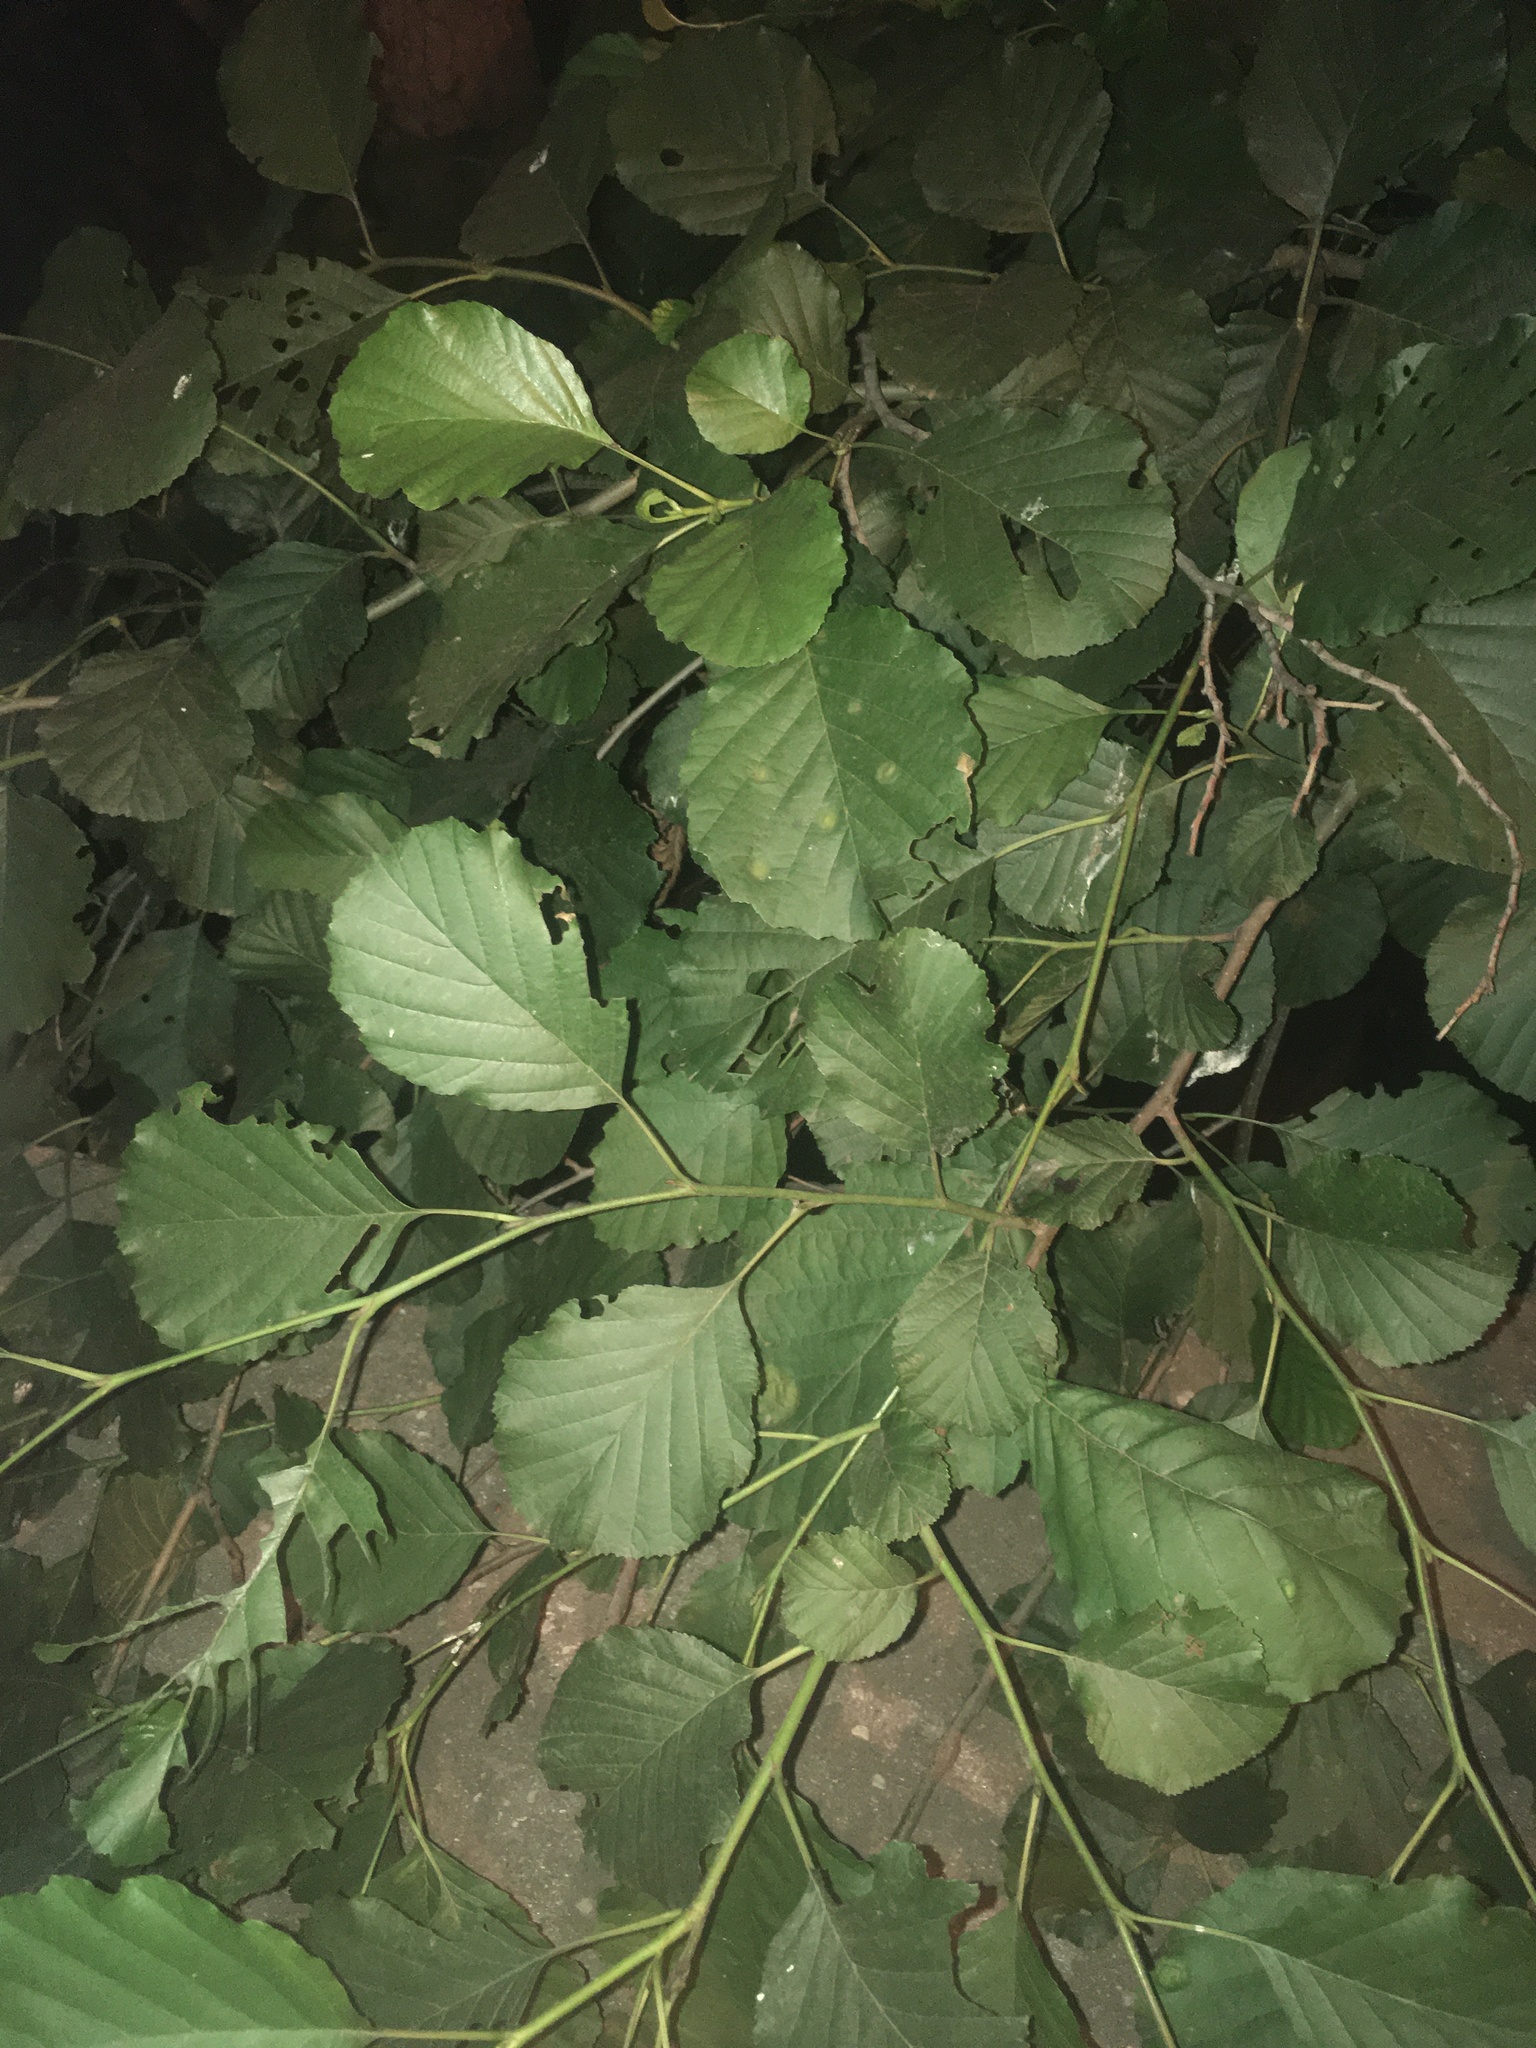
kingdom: Plantae
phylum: Tracheophyta
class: Magnoliopsida
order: Fagales
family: Betulaceae
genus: Alnus
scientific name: Alnus glutinosa
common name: Black alder
